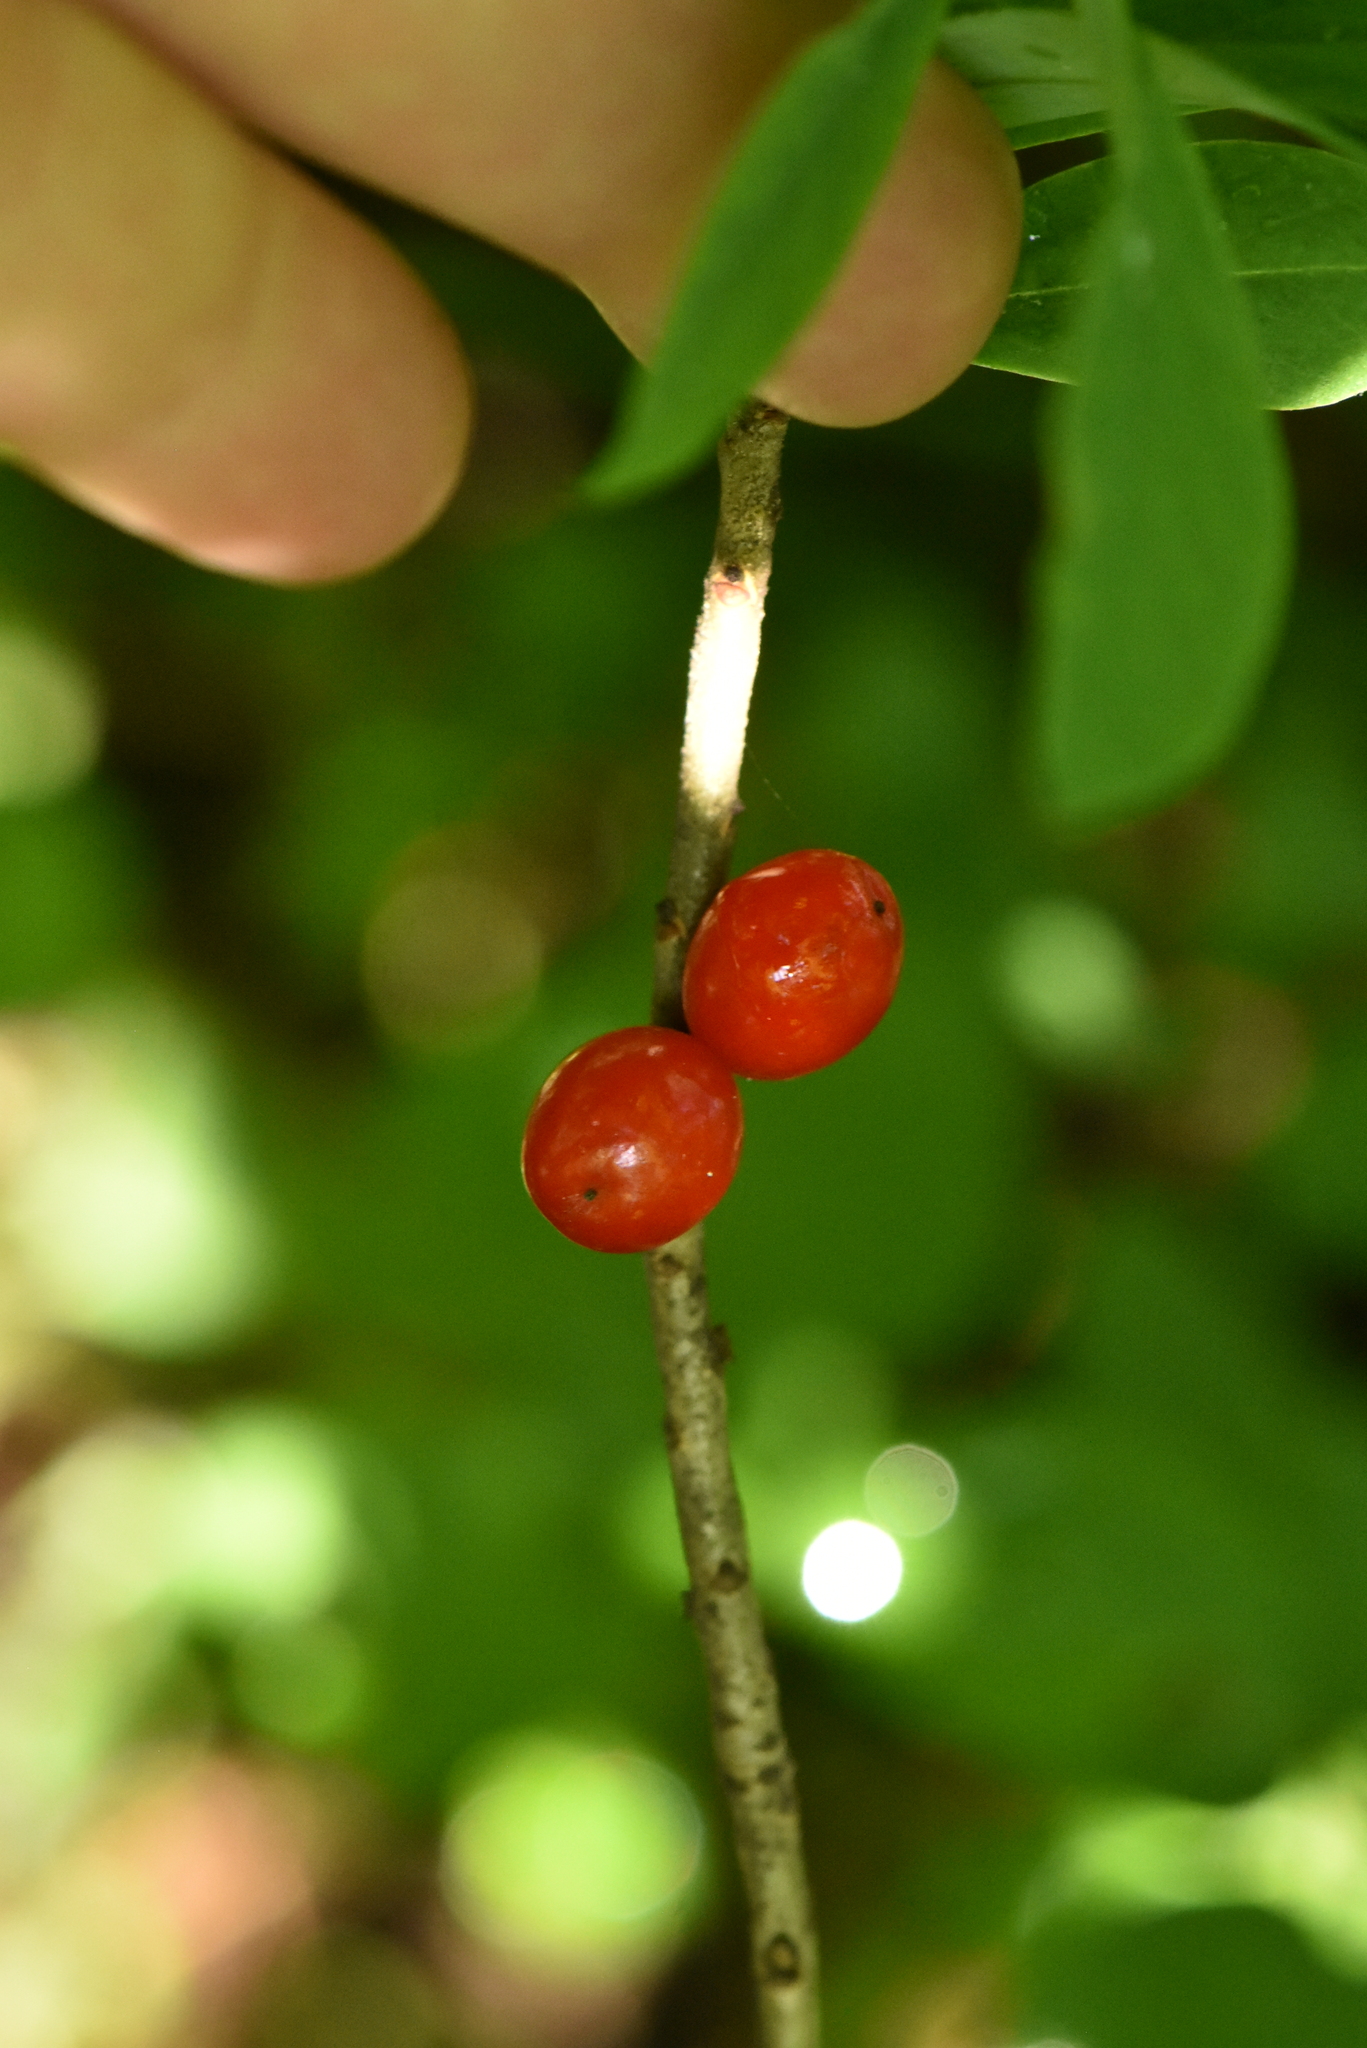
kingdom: Plantae
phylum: Tracheophyta
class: Magnoliopsida
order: Malvales
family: Thymelaeaceae
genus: Daphne
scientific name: Daphne mezereum
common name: Mezereon
